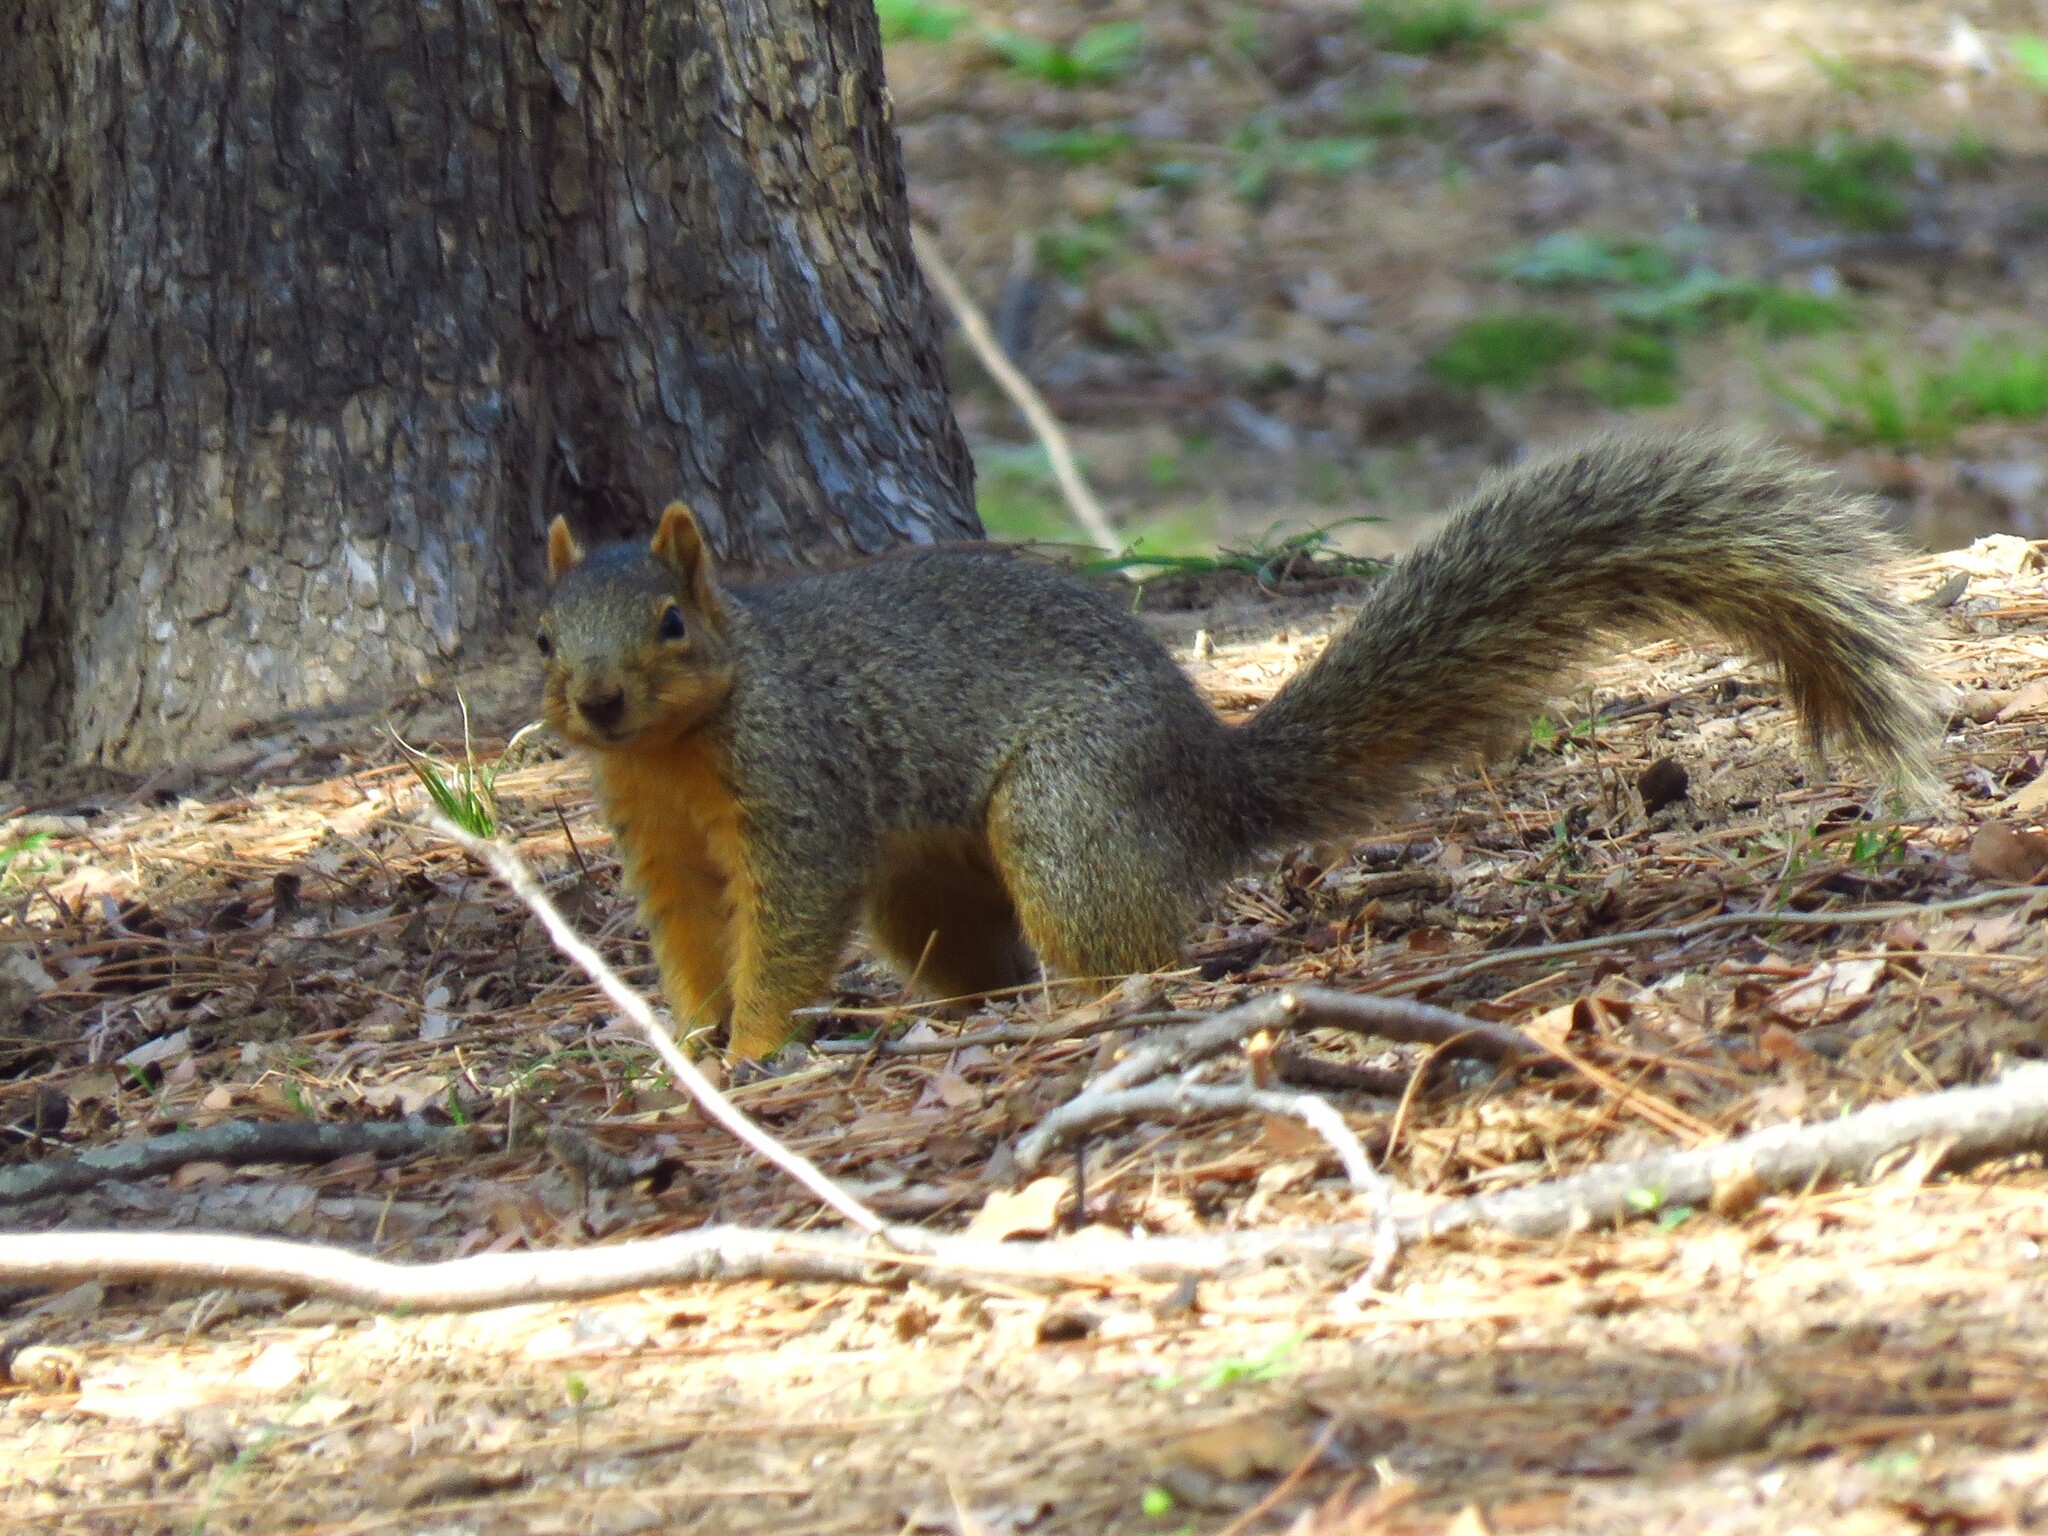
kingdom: Animalia
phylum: Chordata
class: Mammalia
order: Rodentia
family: Sciuridae
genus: Sciurus
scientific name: Sciurus niger
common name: Fox squirrel
